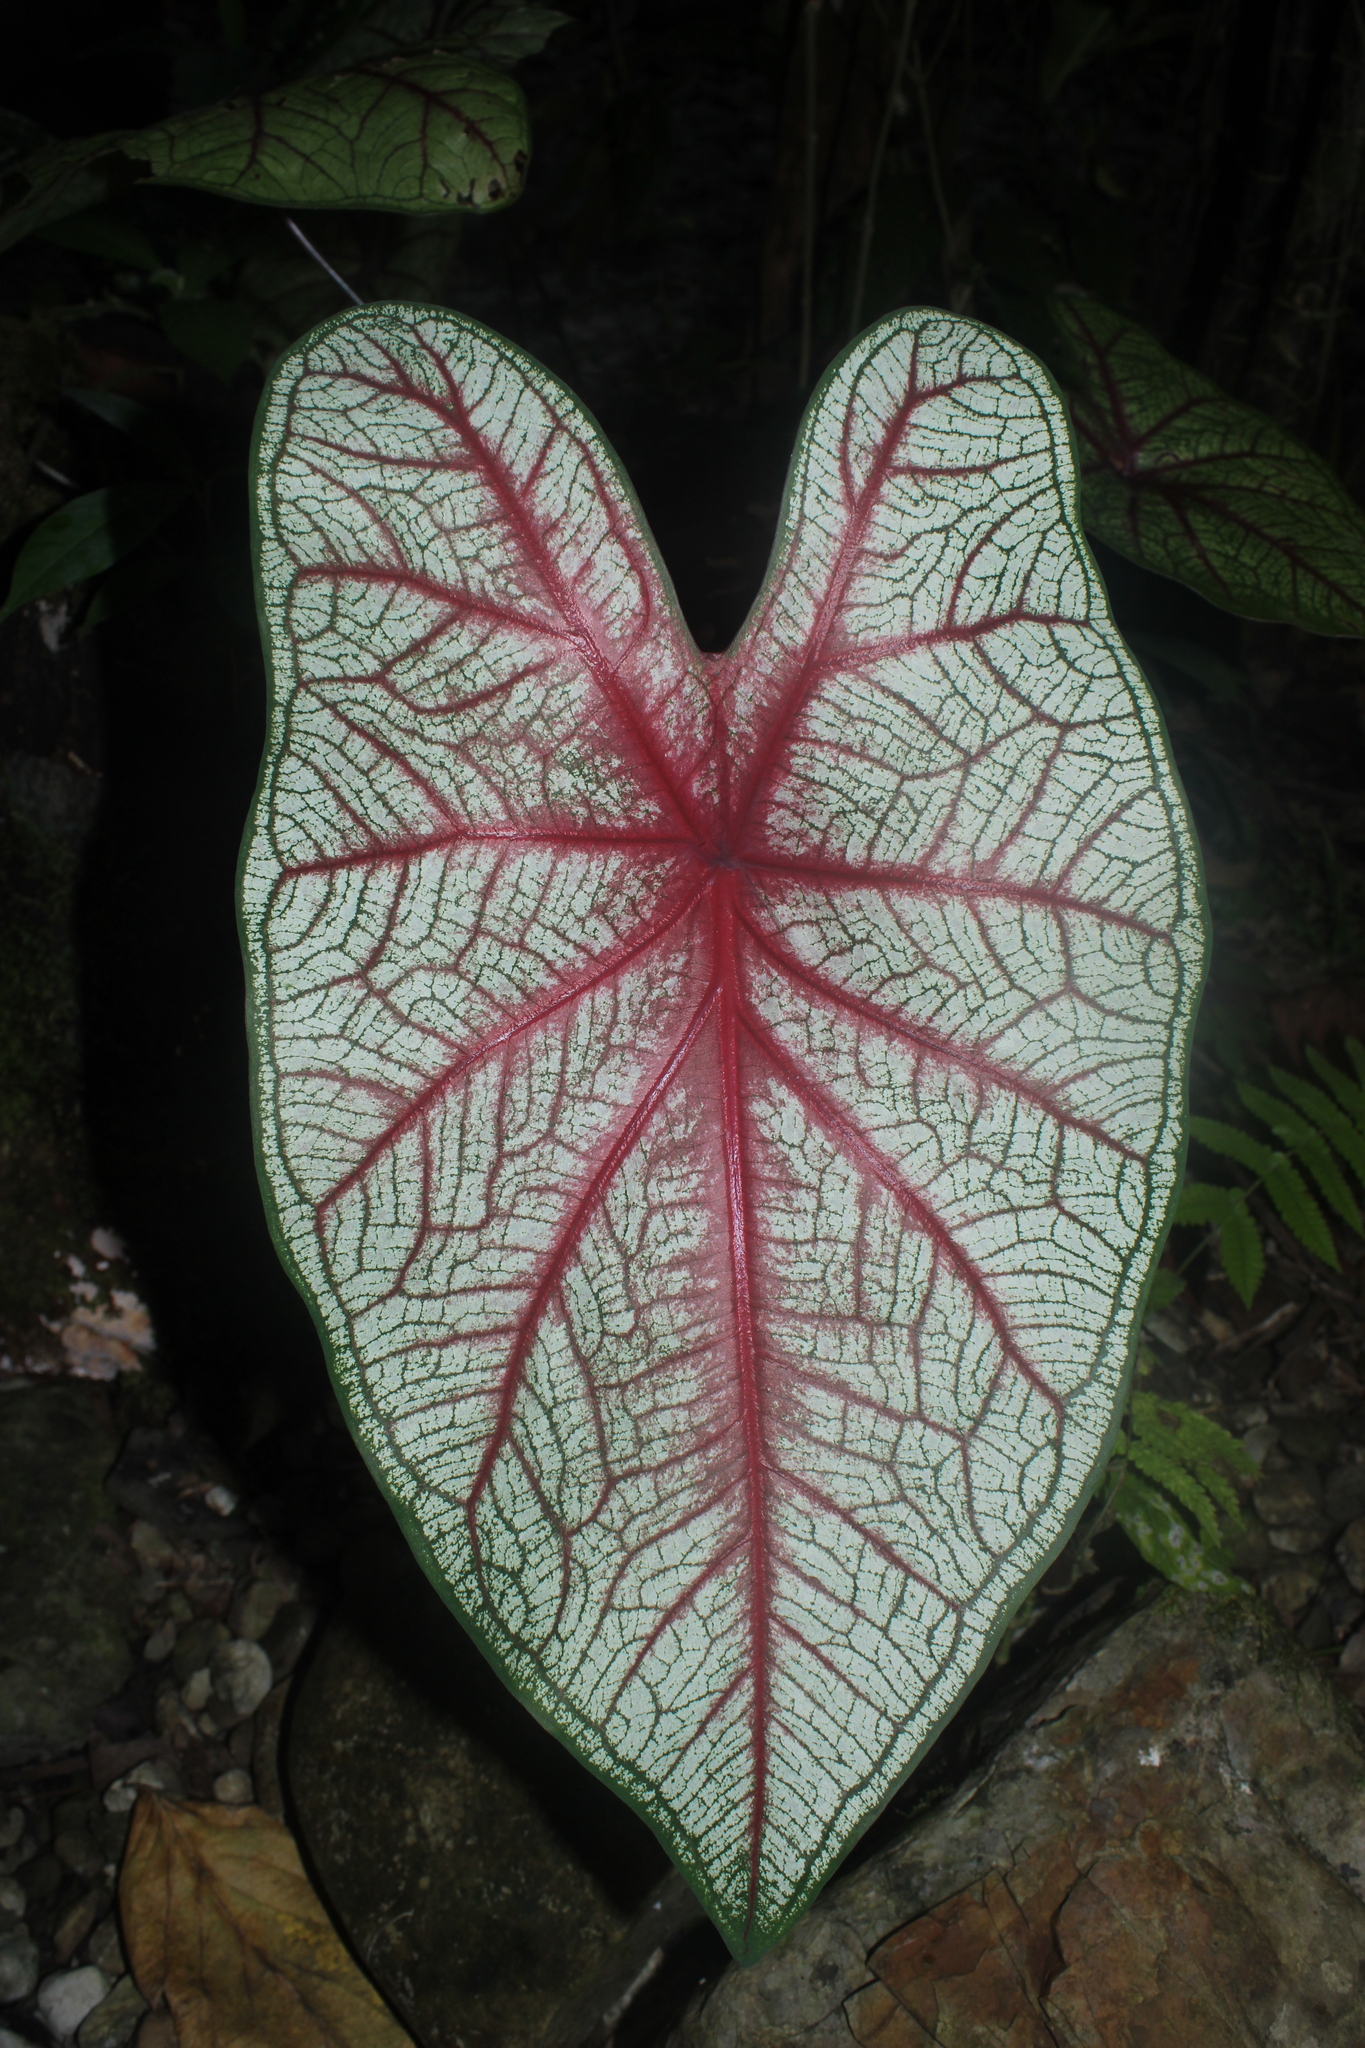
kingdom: Plantae
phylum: Tracheophyta
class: Liliopsida
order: Alismatales
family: Araceae
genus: Caladium
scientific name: Caladium bicolor
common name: Artist's pallet
